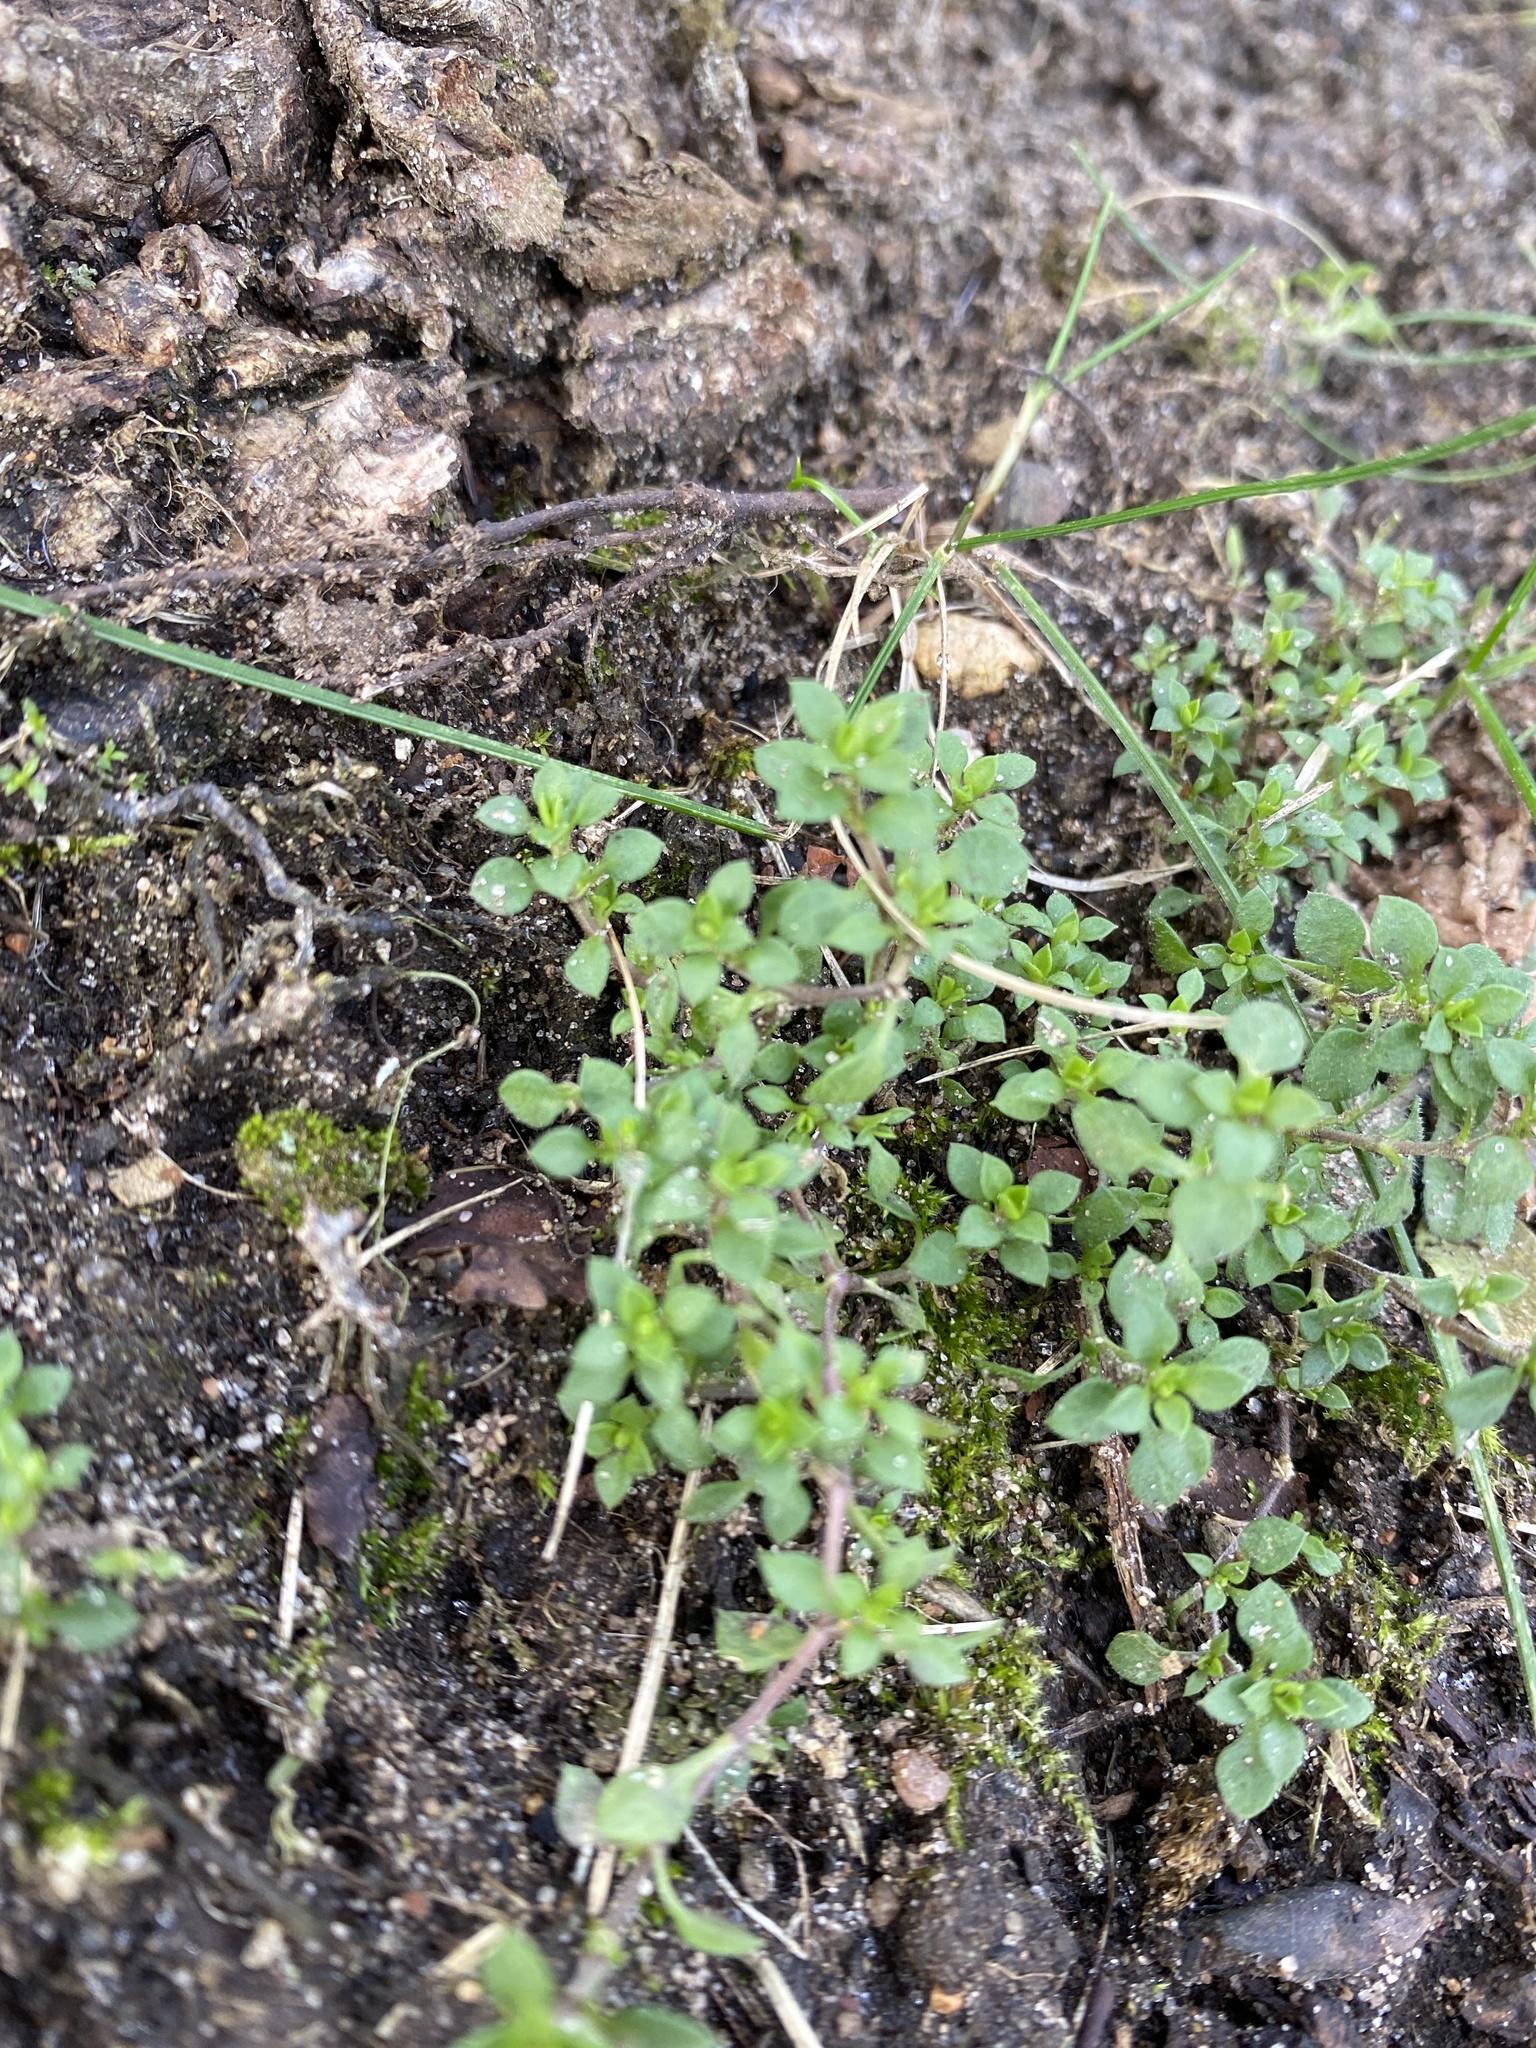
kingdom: Plantae
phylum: Tracheophyta
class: Magnoliopsida
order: Caryophyllales
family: Caryophyllaceae
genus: Moehringia
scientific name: Moehringia trinervia
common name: Three-nerved sandwort
